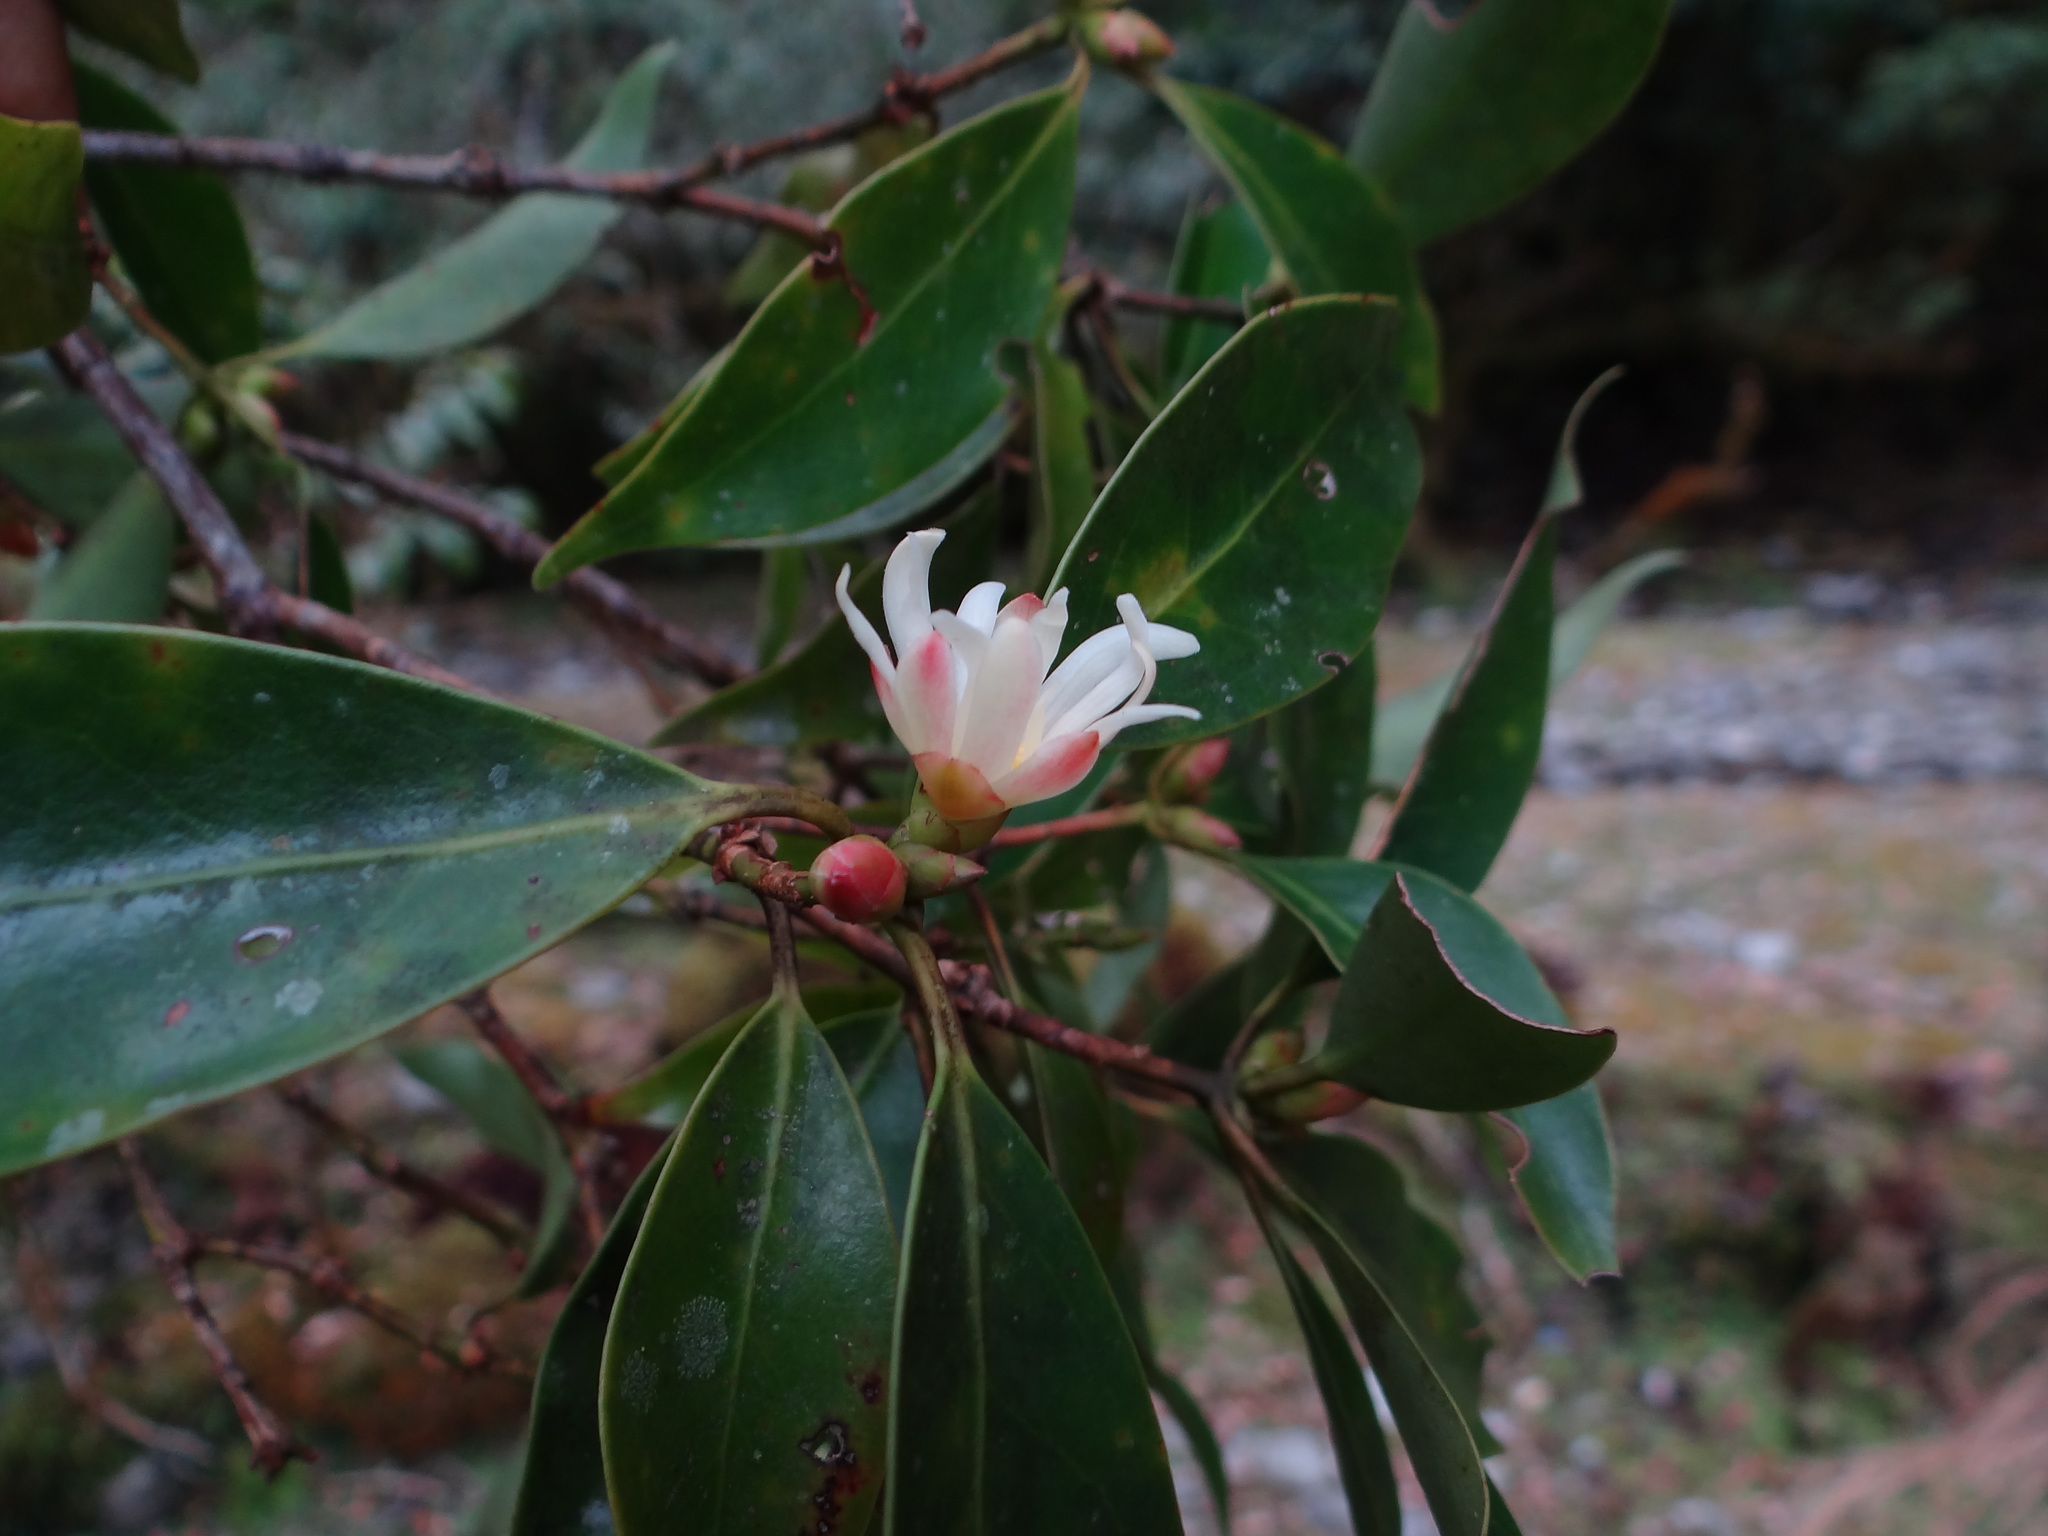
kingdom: Plantae
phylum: Tracheophyta
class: Magnoliopsida
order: Austrobaileyales
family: Schisandraceae
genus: Illicium
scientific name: Illicium anisatum
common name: Sacred anisetree
